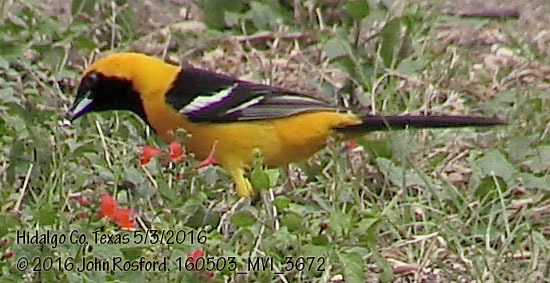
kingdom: Animalia
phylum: Chordata
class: Aves
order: Passeriformes
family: Icteridae
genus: Icterus
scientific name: Icterus cucullatus
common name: Hooded oriole
